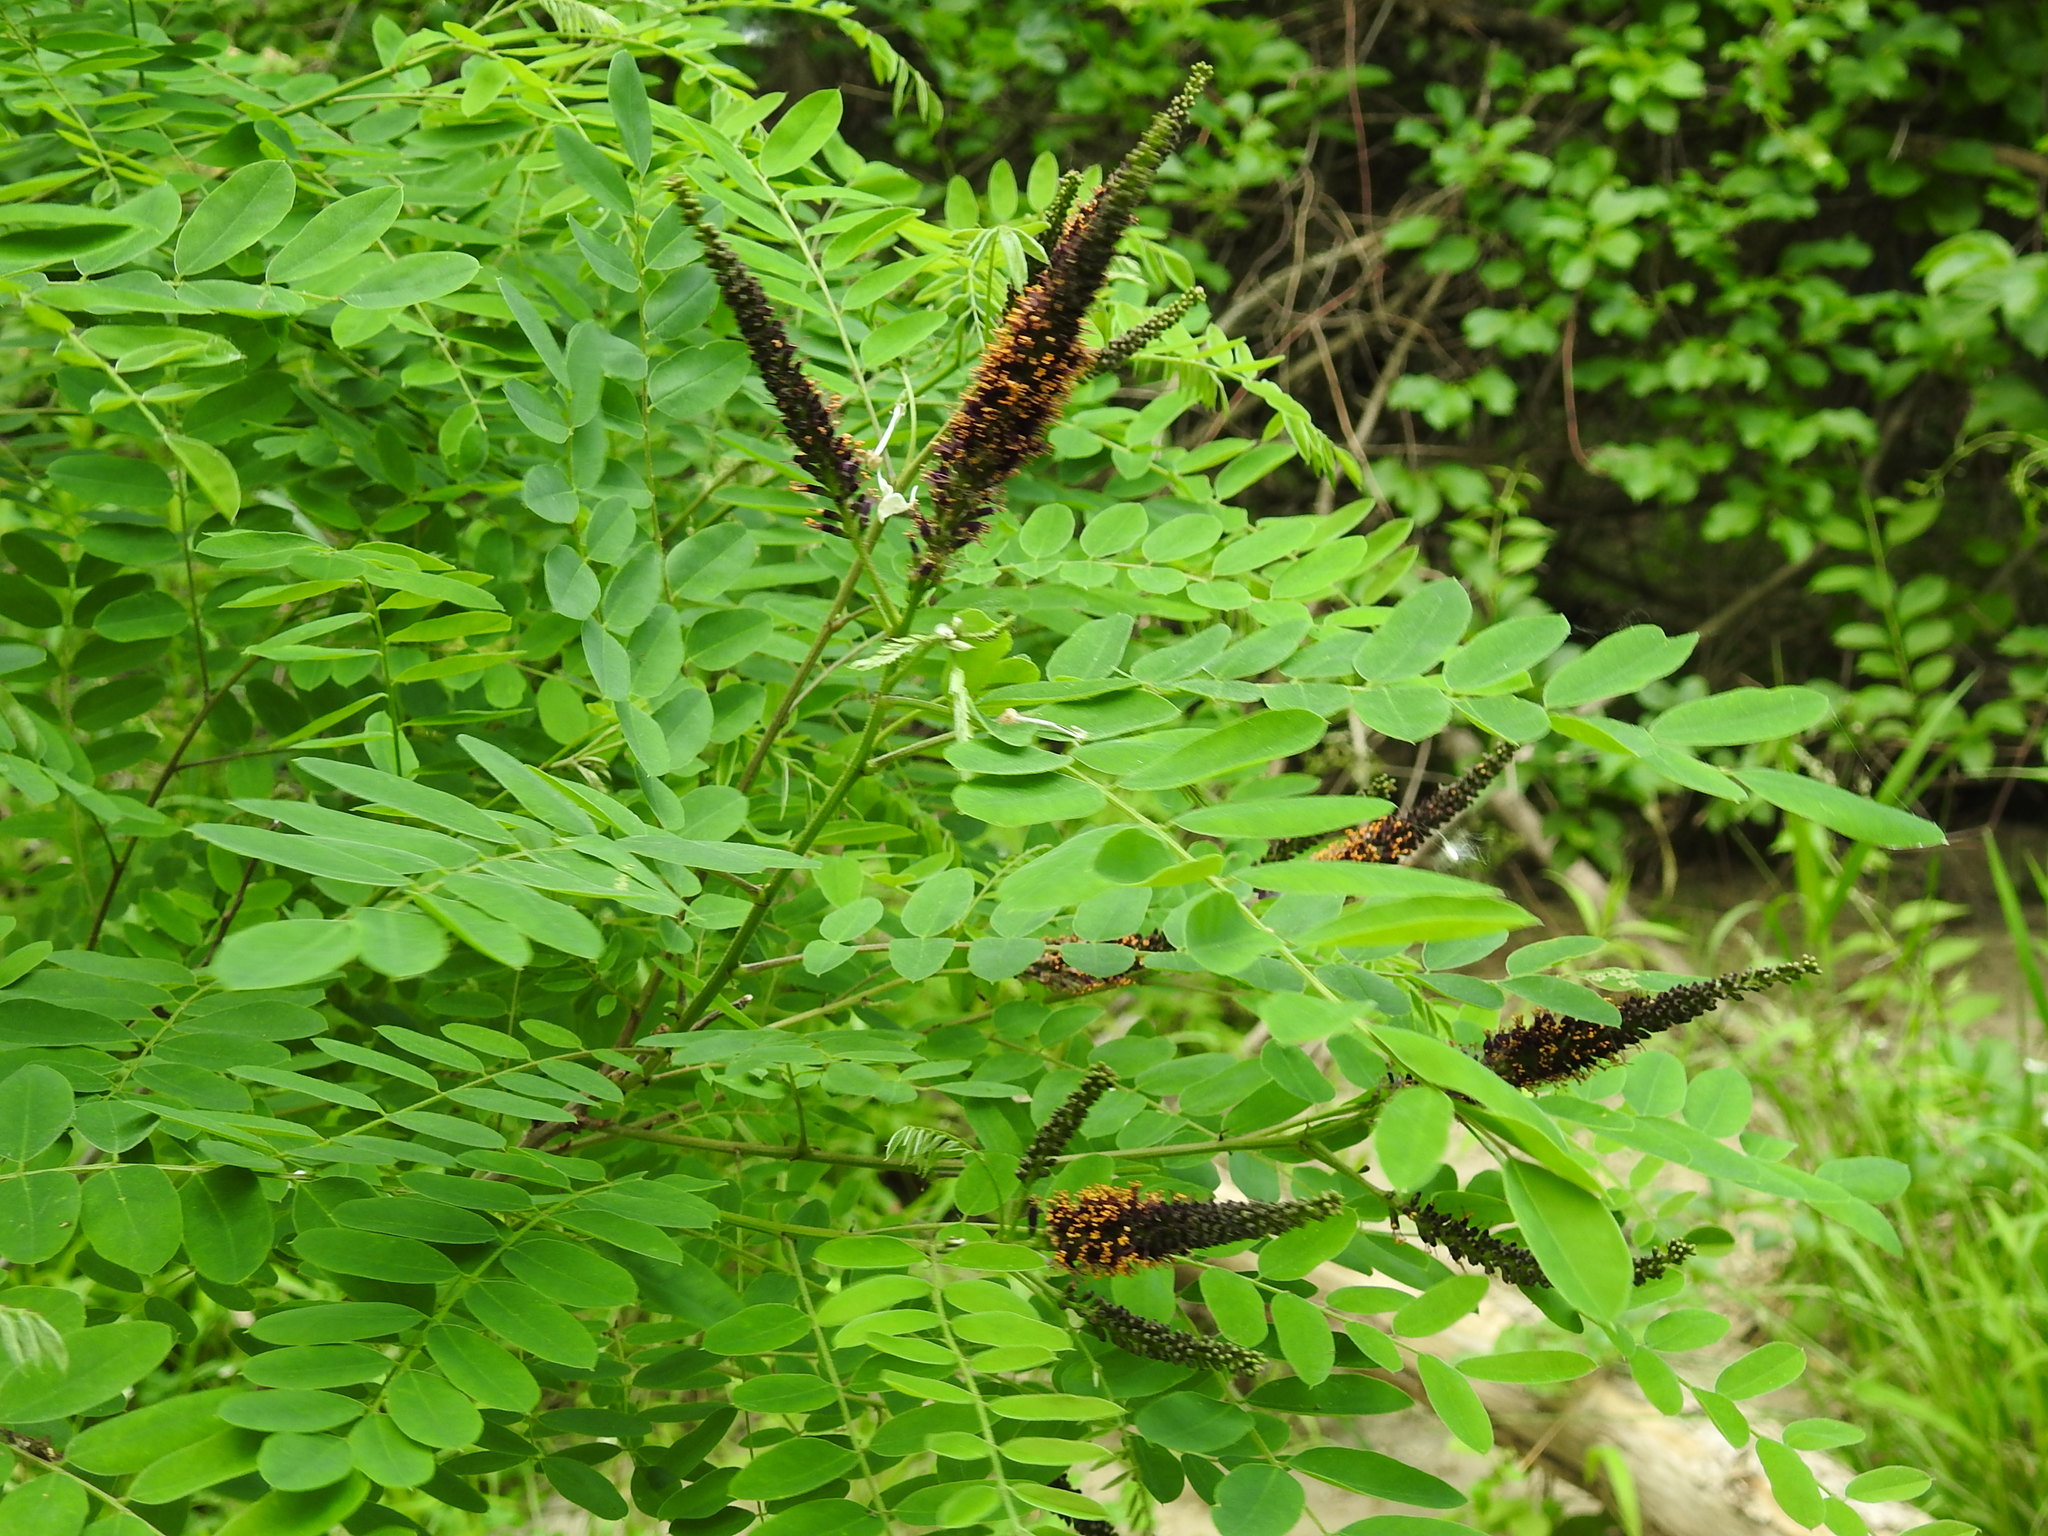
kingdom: Plantae
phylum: Tracheophyta
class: Magnoliopsida
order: Fabales
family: Fabaceae
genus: Amorpha
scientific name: Amorpha fruticosa
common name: False indigo
